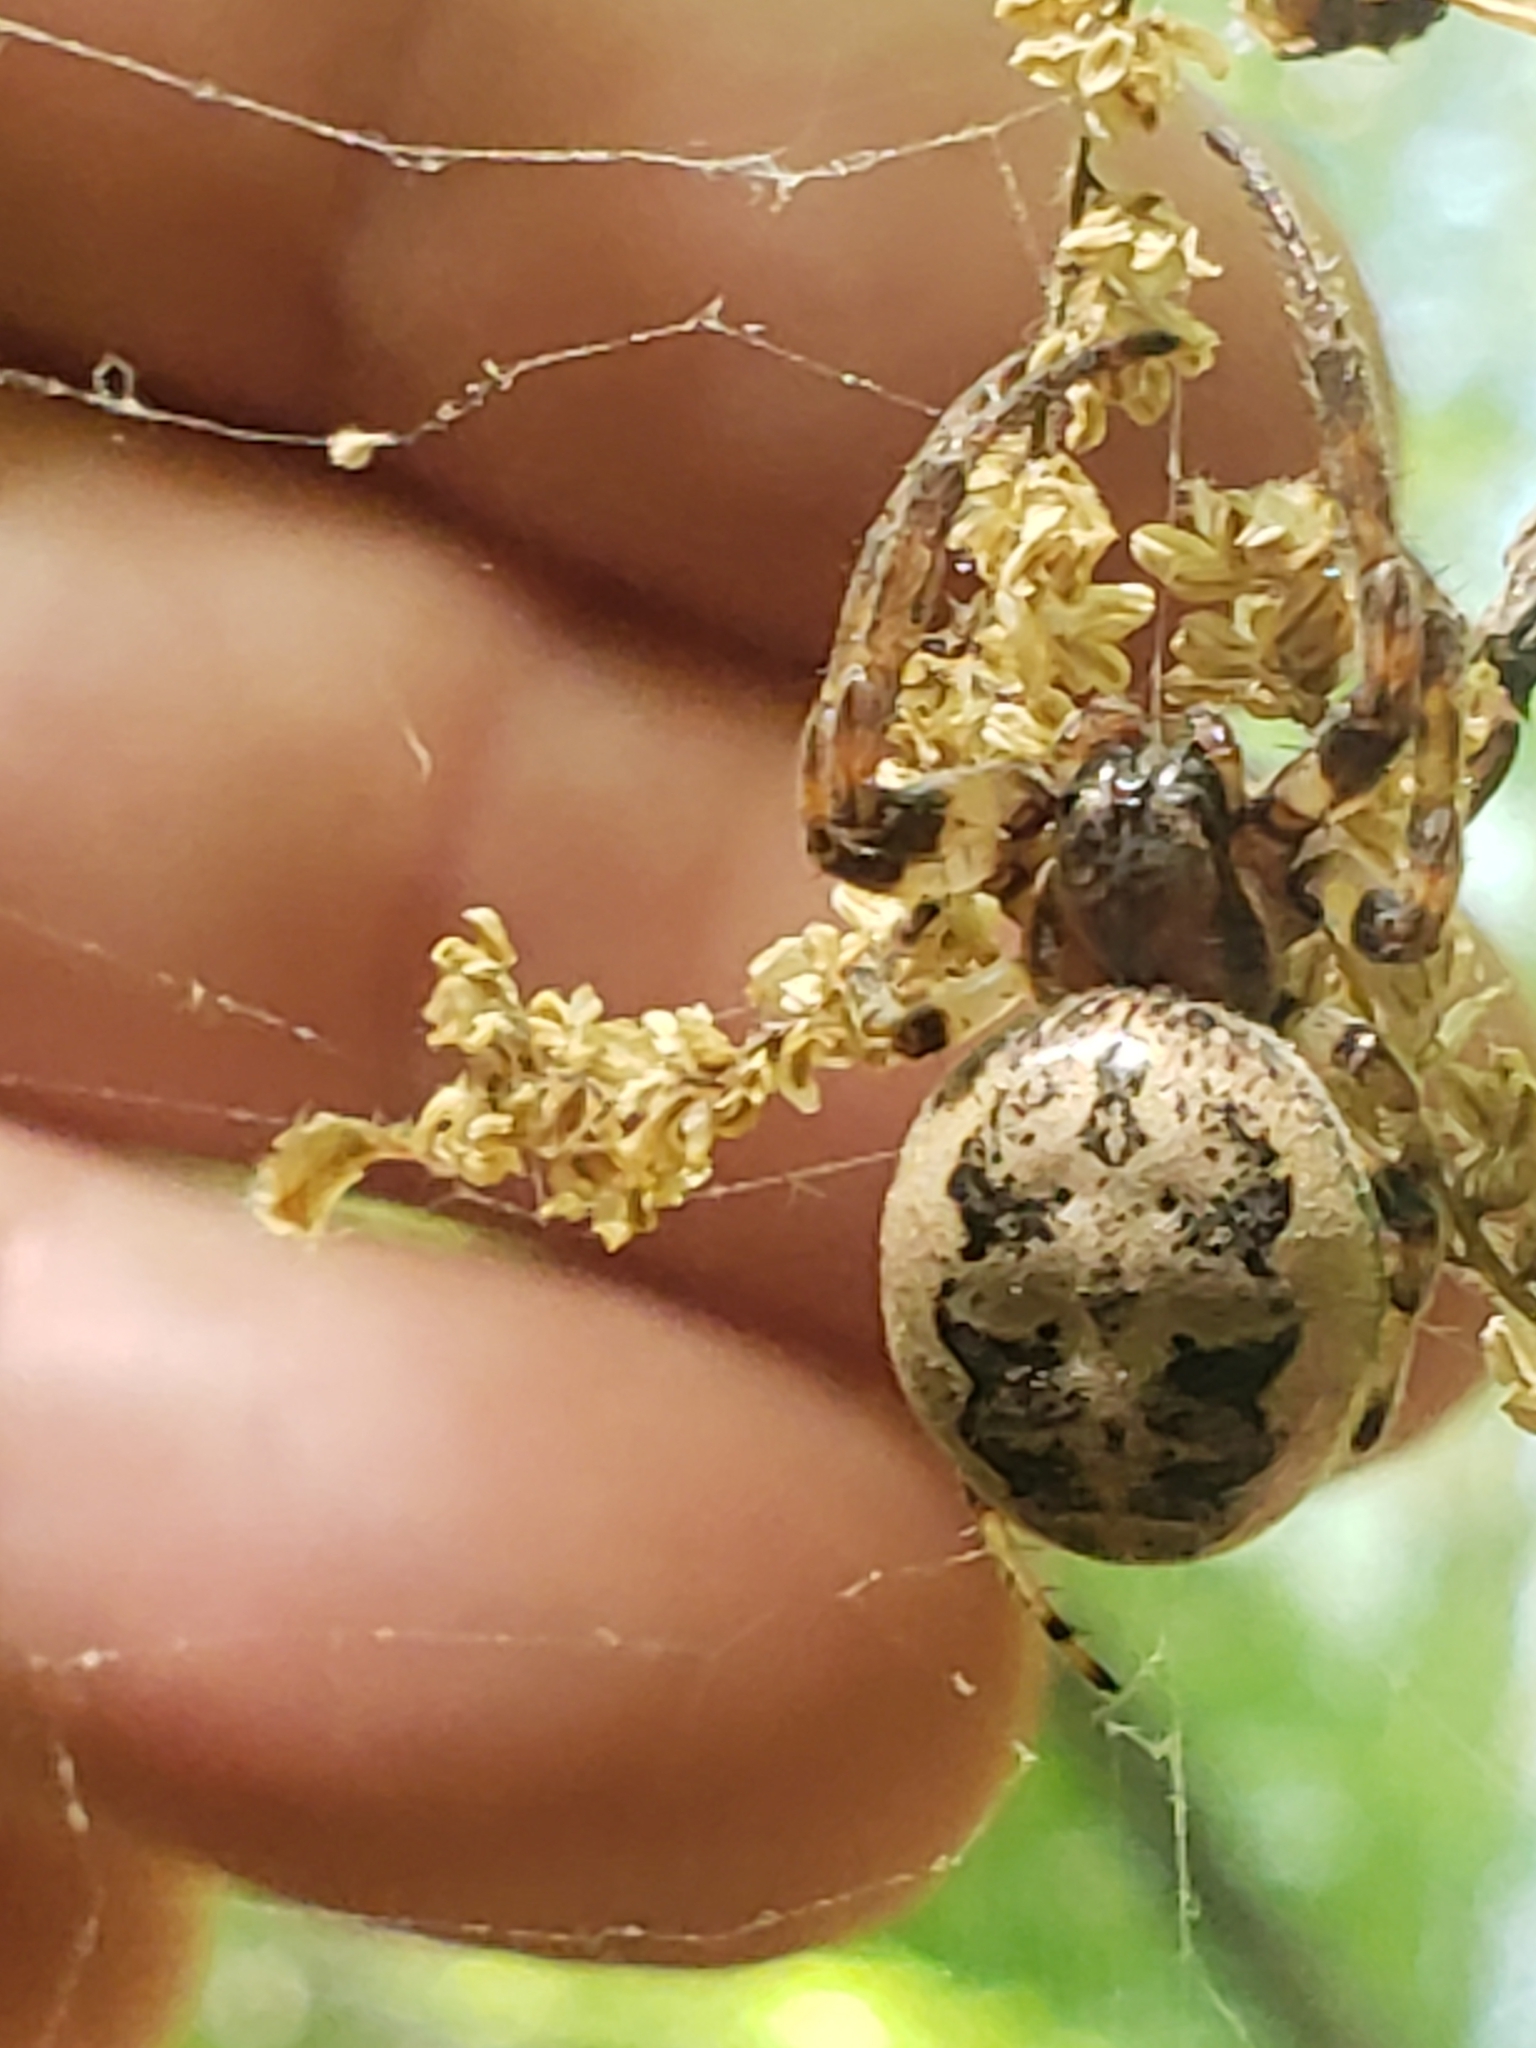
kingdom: Animalia
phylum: Arthropoda
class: Arachnida
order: Araneae
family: Araneidae
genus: Larinioides
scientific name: Larinioides cornutus
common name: Furrow orbweaver
